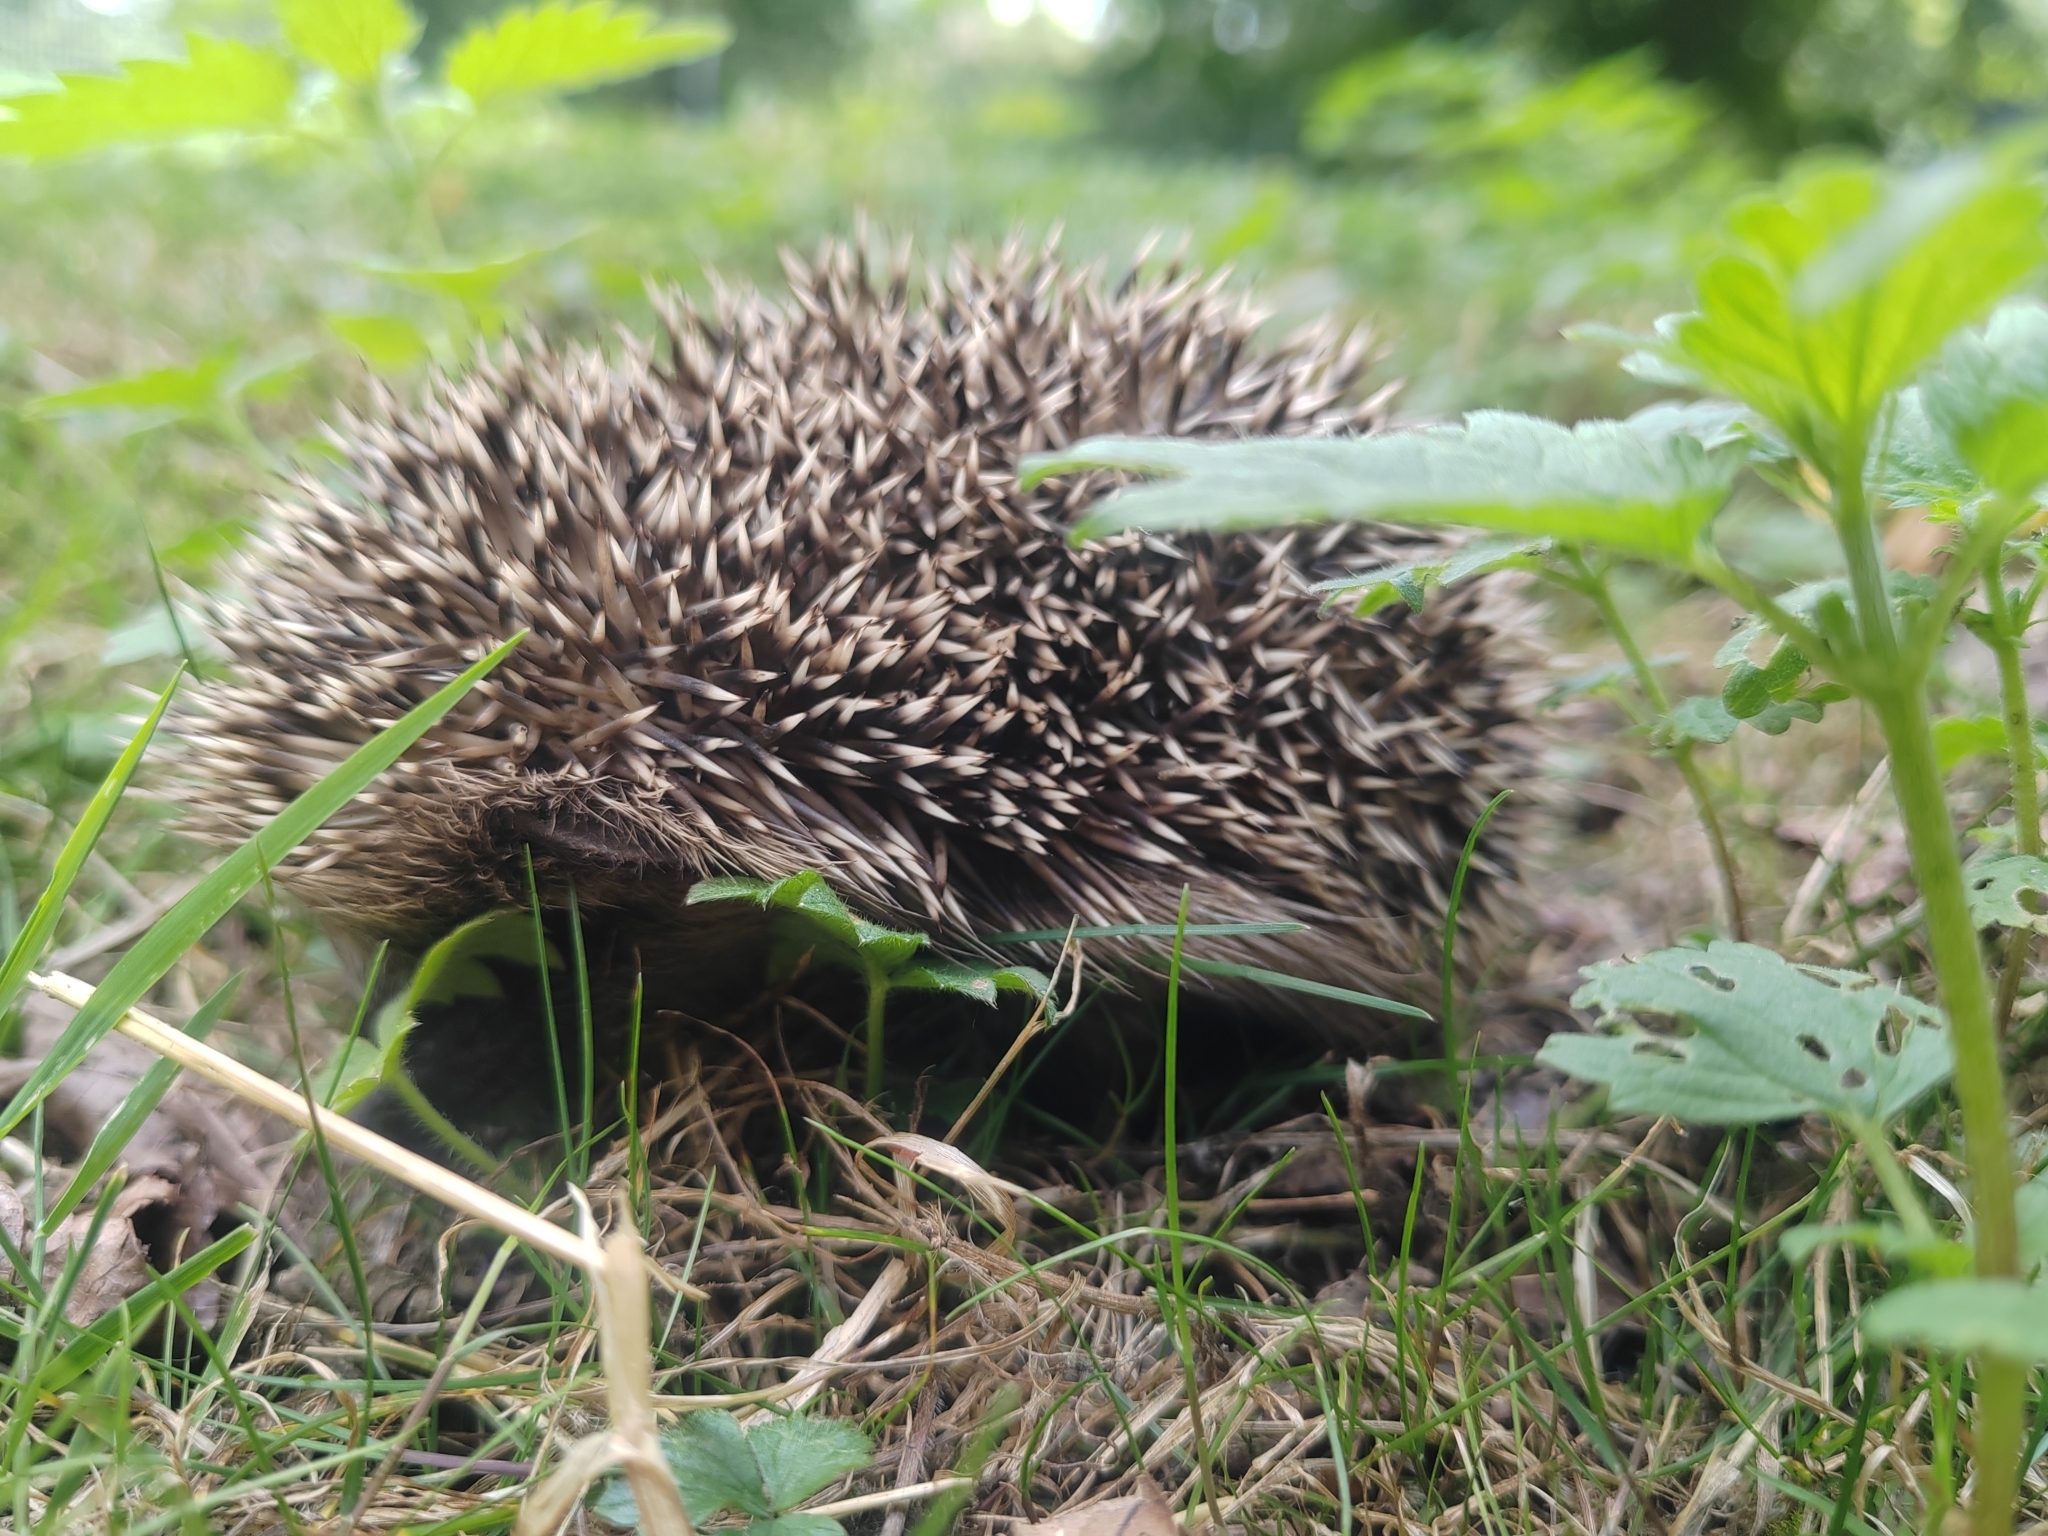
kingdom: Animalia
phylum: Chordata
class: Mammalia
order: Erinaceomorpha
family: Erinaceidae
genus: Erinaceus
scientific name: Erinaceus europaeus
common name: West european hedgehog
